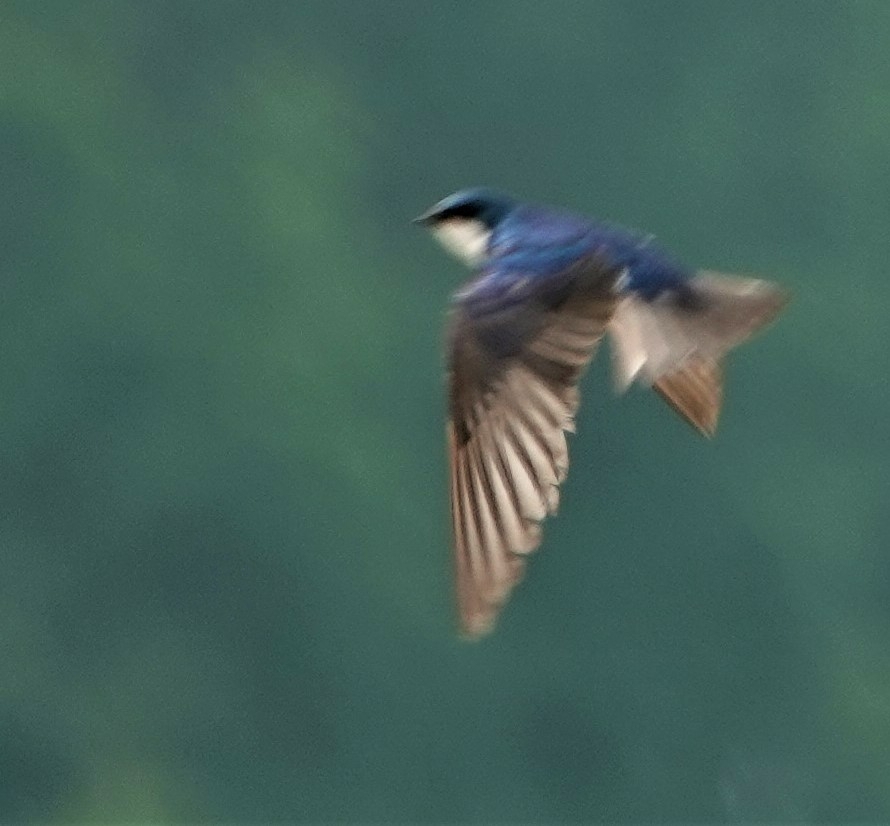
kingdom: Animalia
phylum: Chordata
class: Aves
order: Passeriformes
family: Hirundinidae
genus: Tachycineta
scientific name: Tachycineta bicolor
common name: Tree swallow
